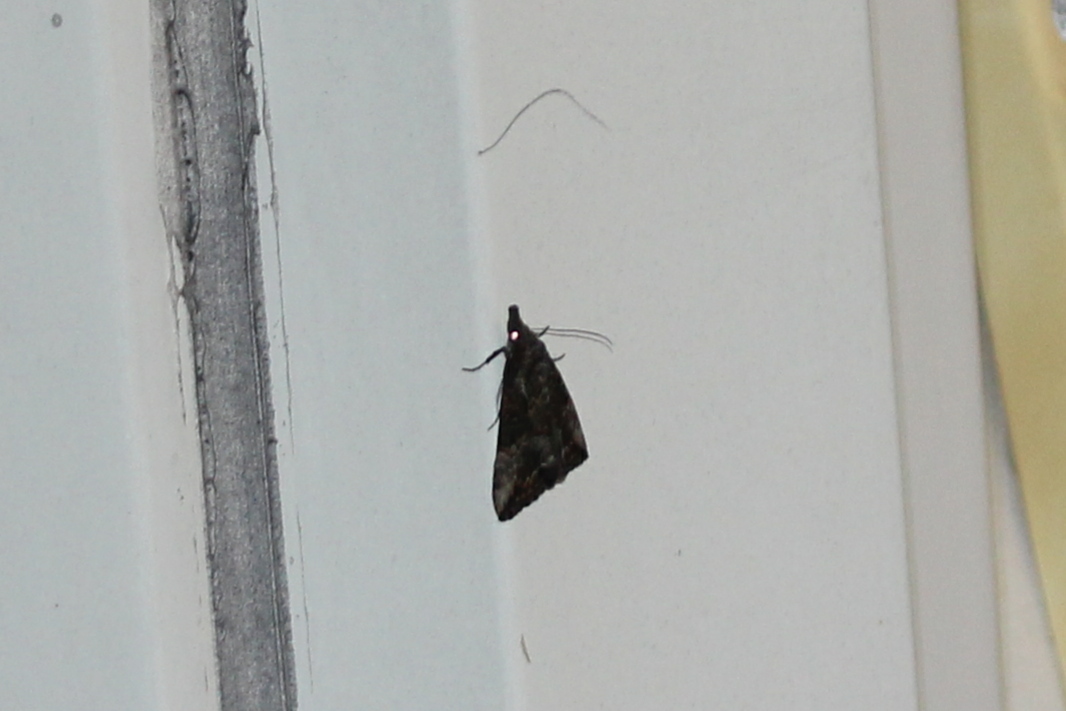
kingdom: Animalia
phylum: Arthropoda
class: Insecta
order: Lepidoptera
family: Erebidae
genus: Hypena
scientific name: Hypena scabra
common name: Green cloverworm
